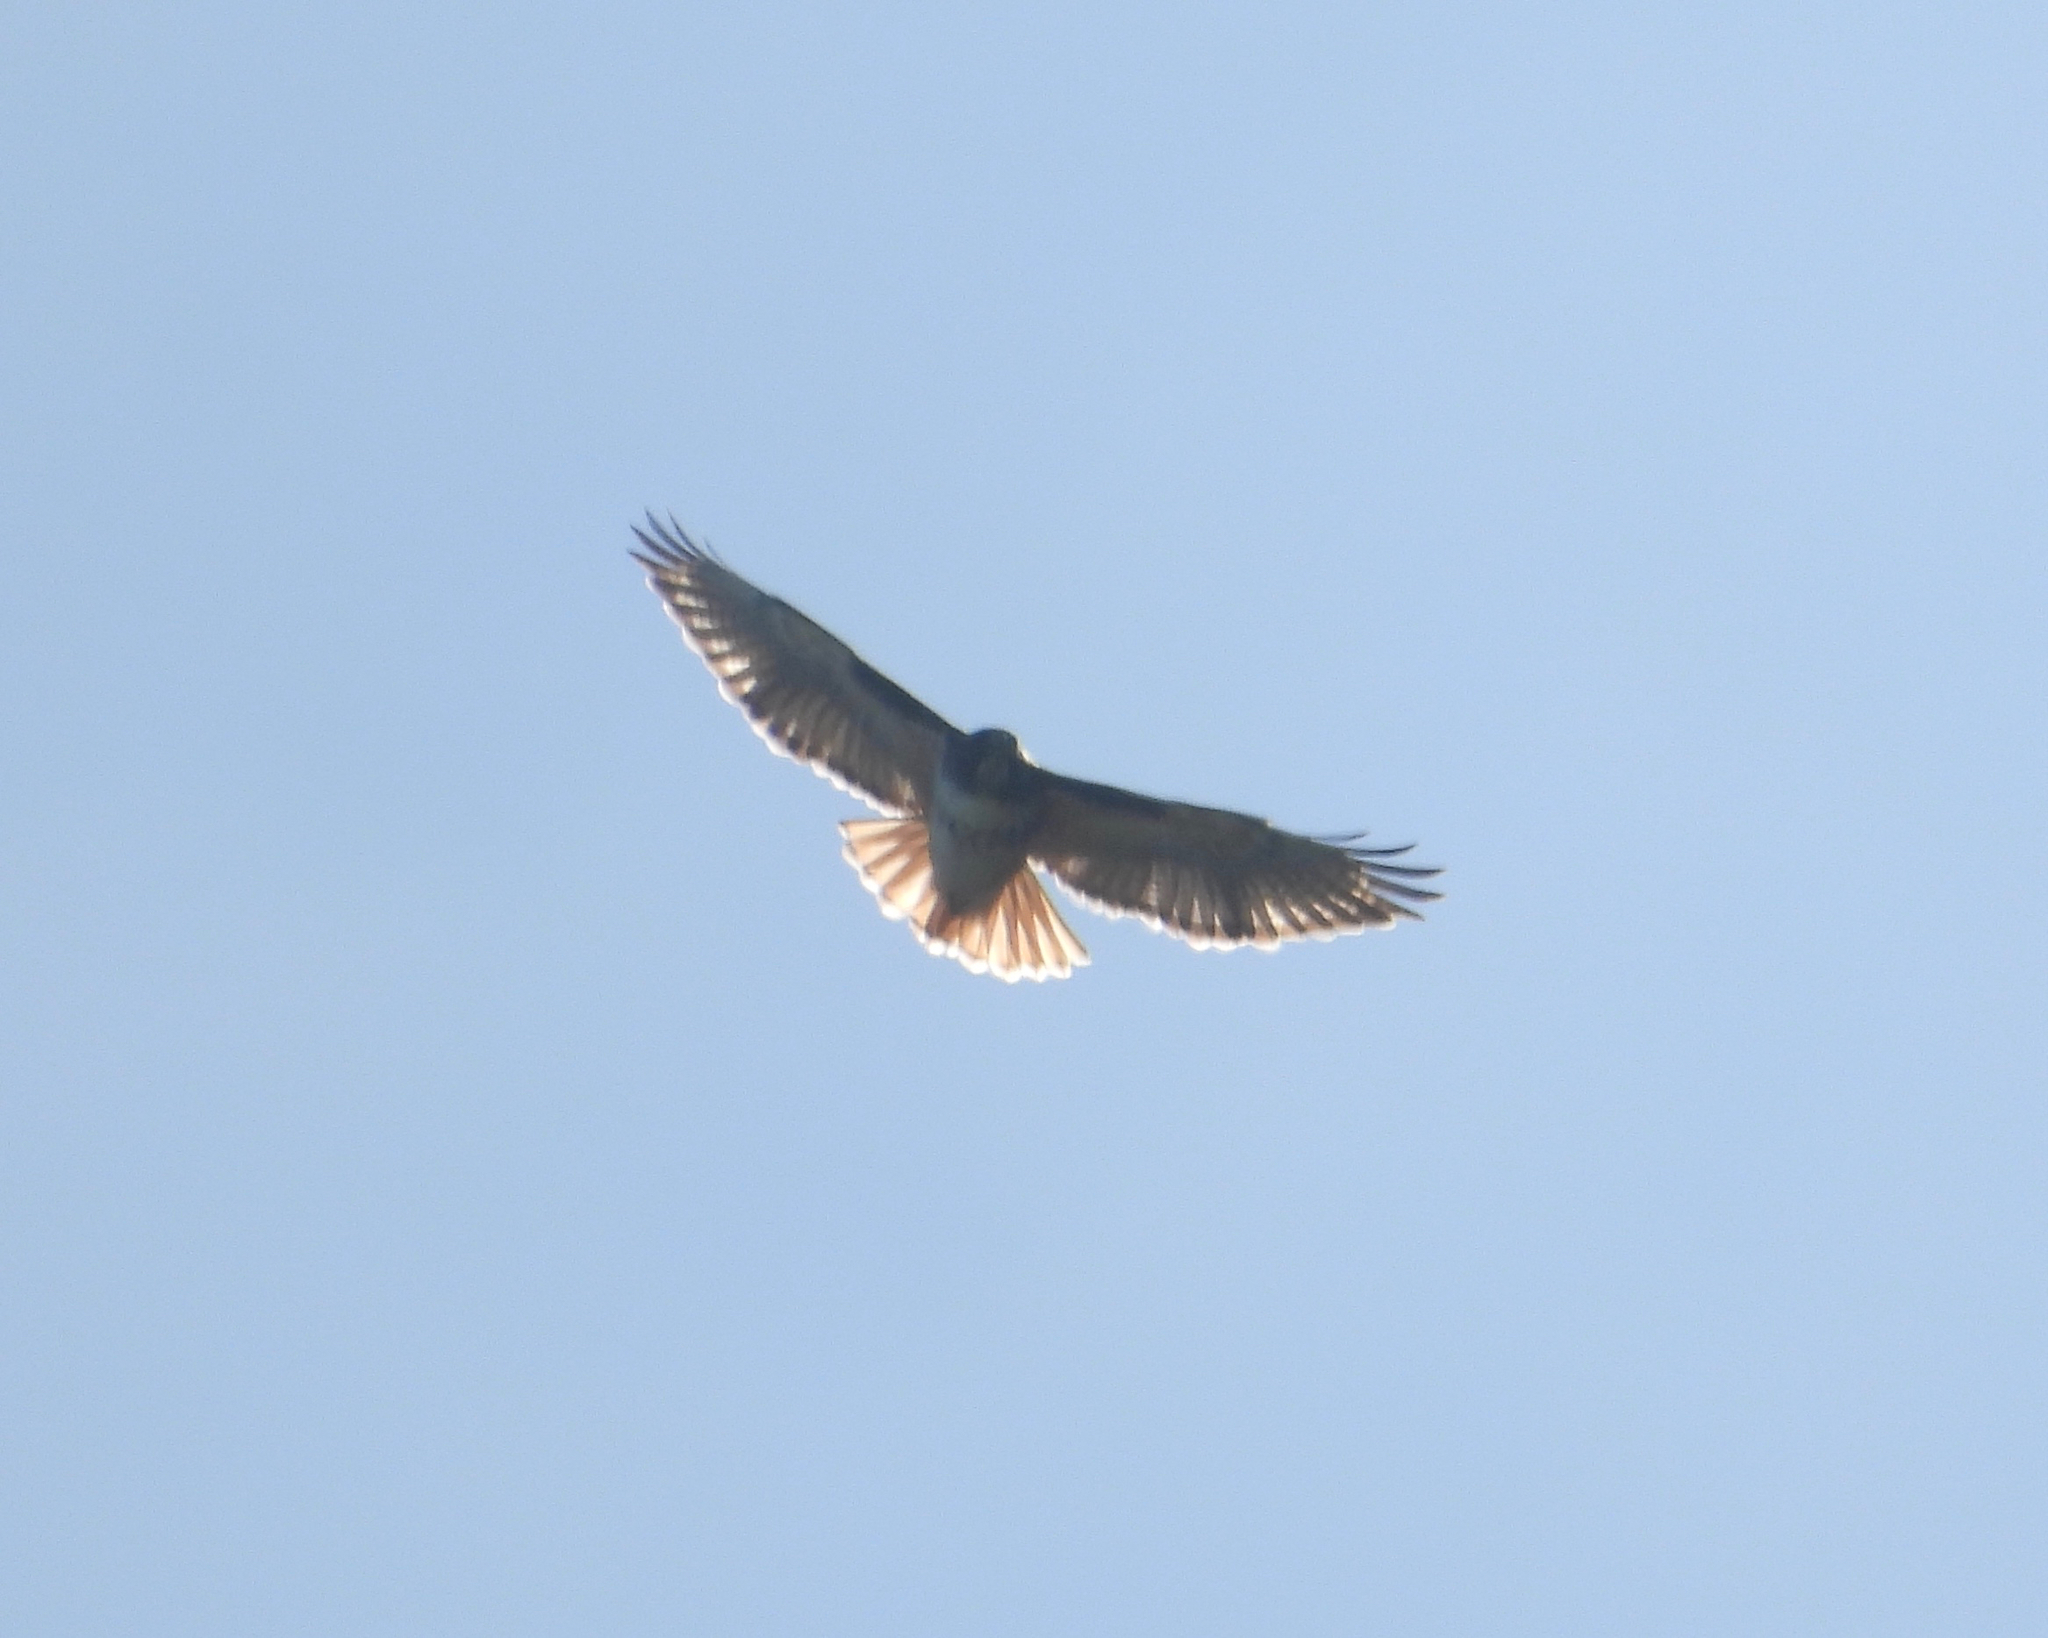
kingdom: Animalia
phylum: Chordata
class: Aves
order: Accipitriformes
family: Accipitridae
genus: Buteo
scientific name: Buteo jamaicensis
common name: Red-tailed hawk
